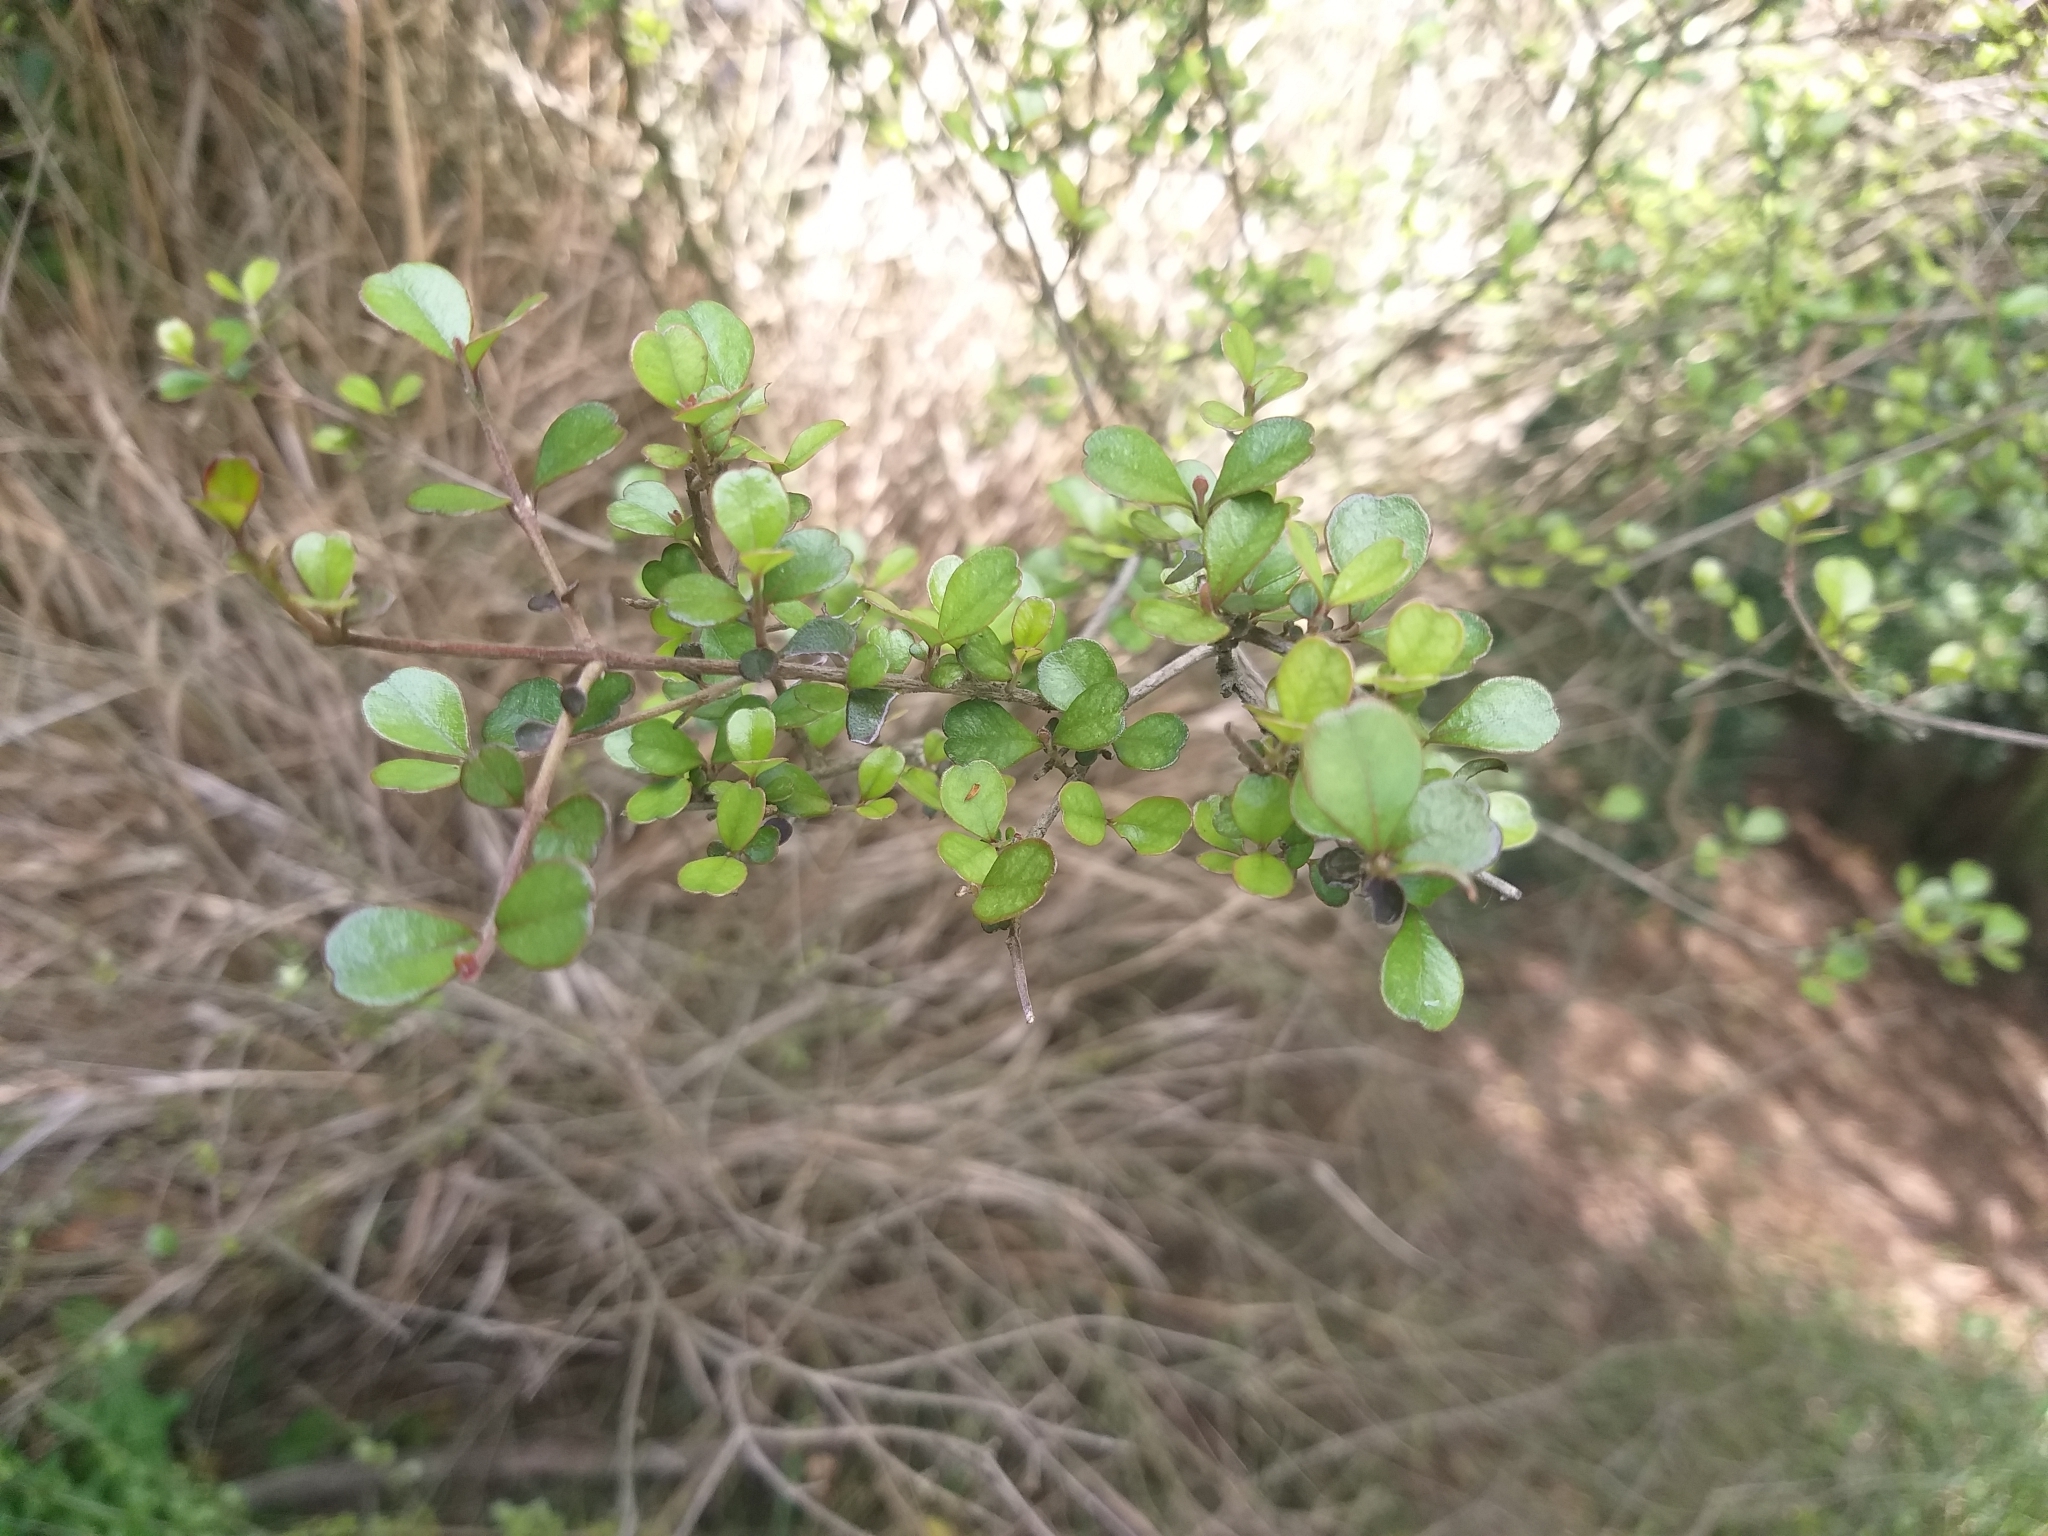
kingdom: Plantae
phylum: Tracheophyta
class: Magnoliopsida
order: Myrtales
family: Myrtaceae
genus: Lophomyrtus
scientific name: Lophomyrtus obcordata
